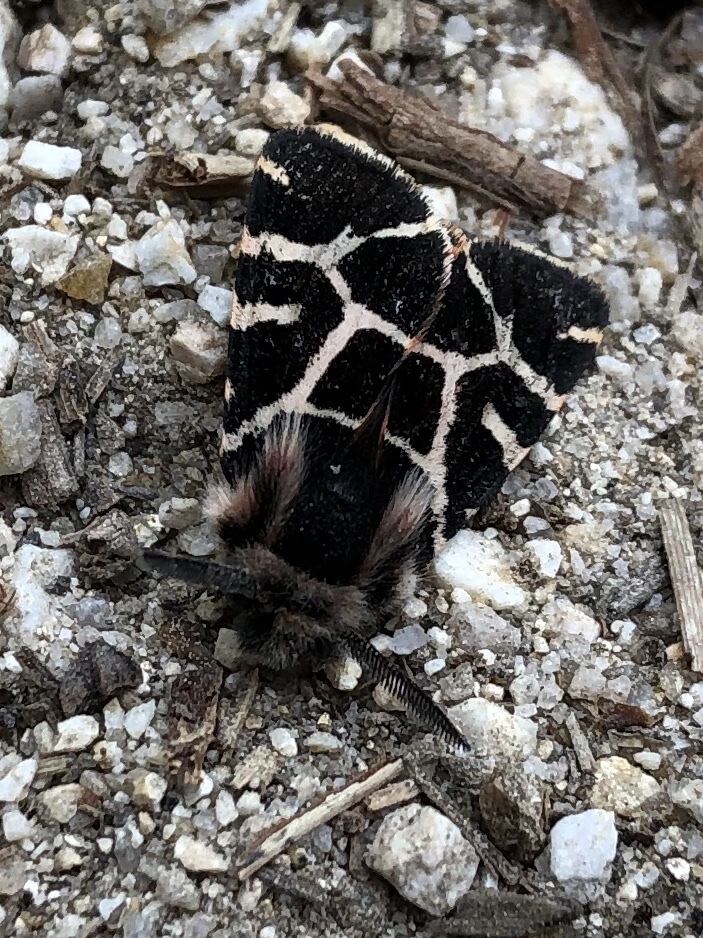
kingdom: Animalia
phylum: Arthropoda
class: Insecta
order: Lepidoptera
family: Erebidae
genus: Artimelia
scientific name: Artimelia latreillii
